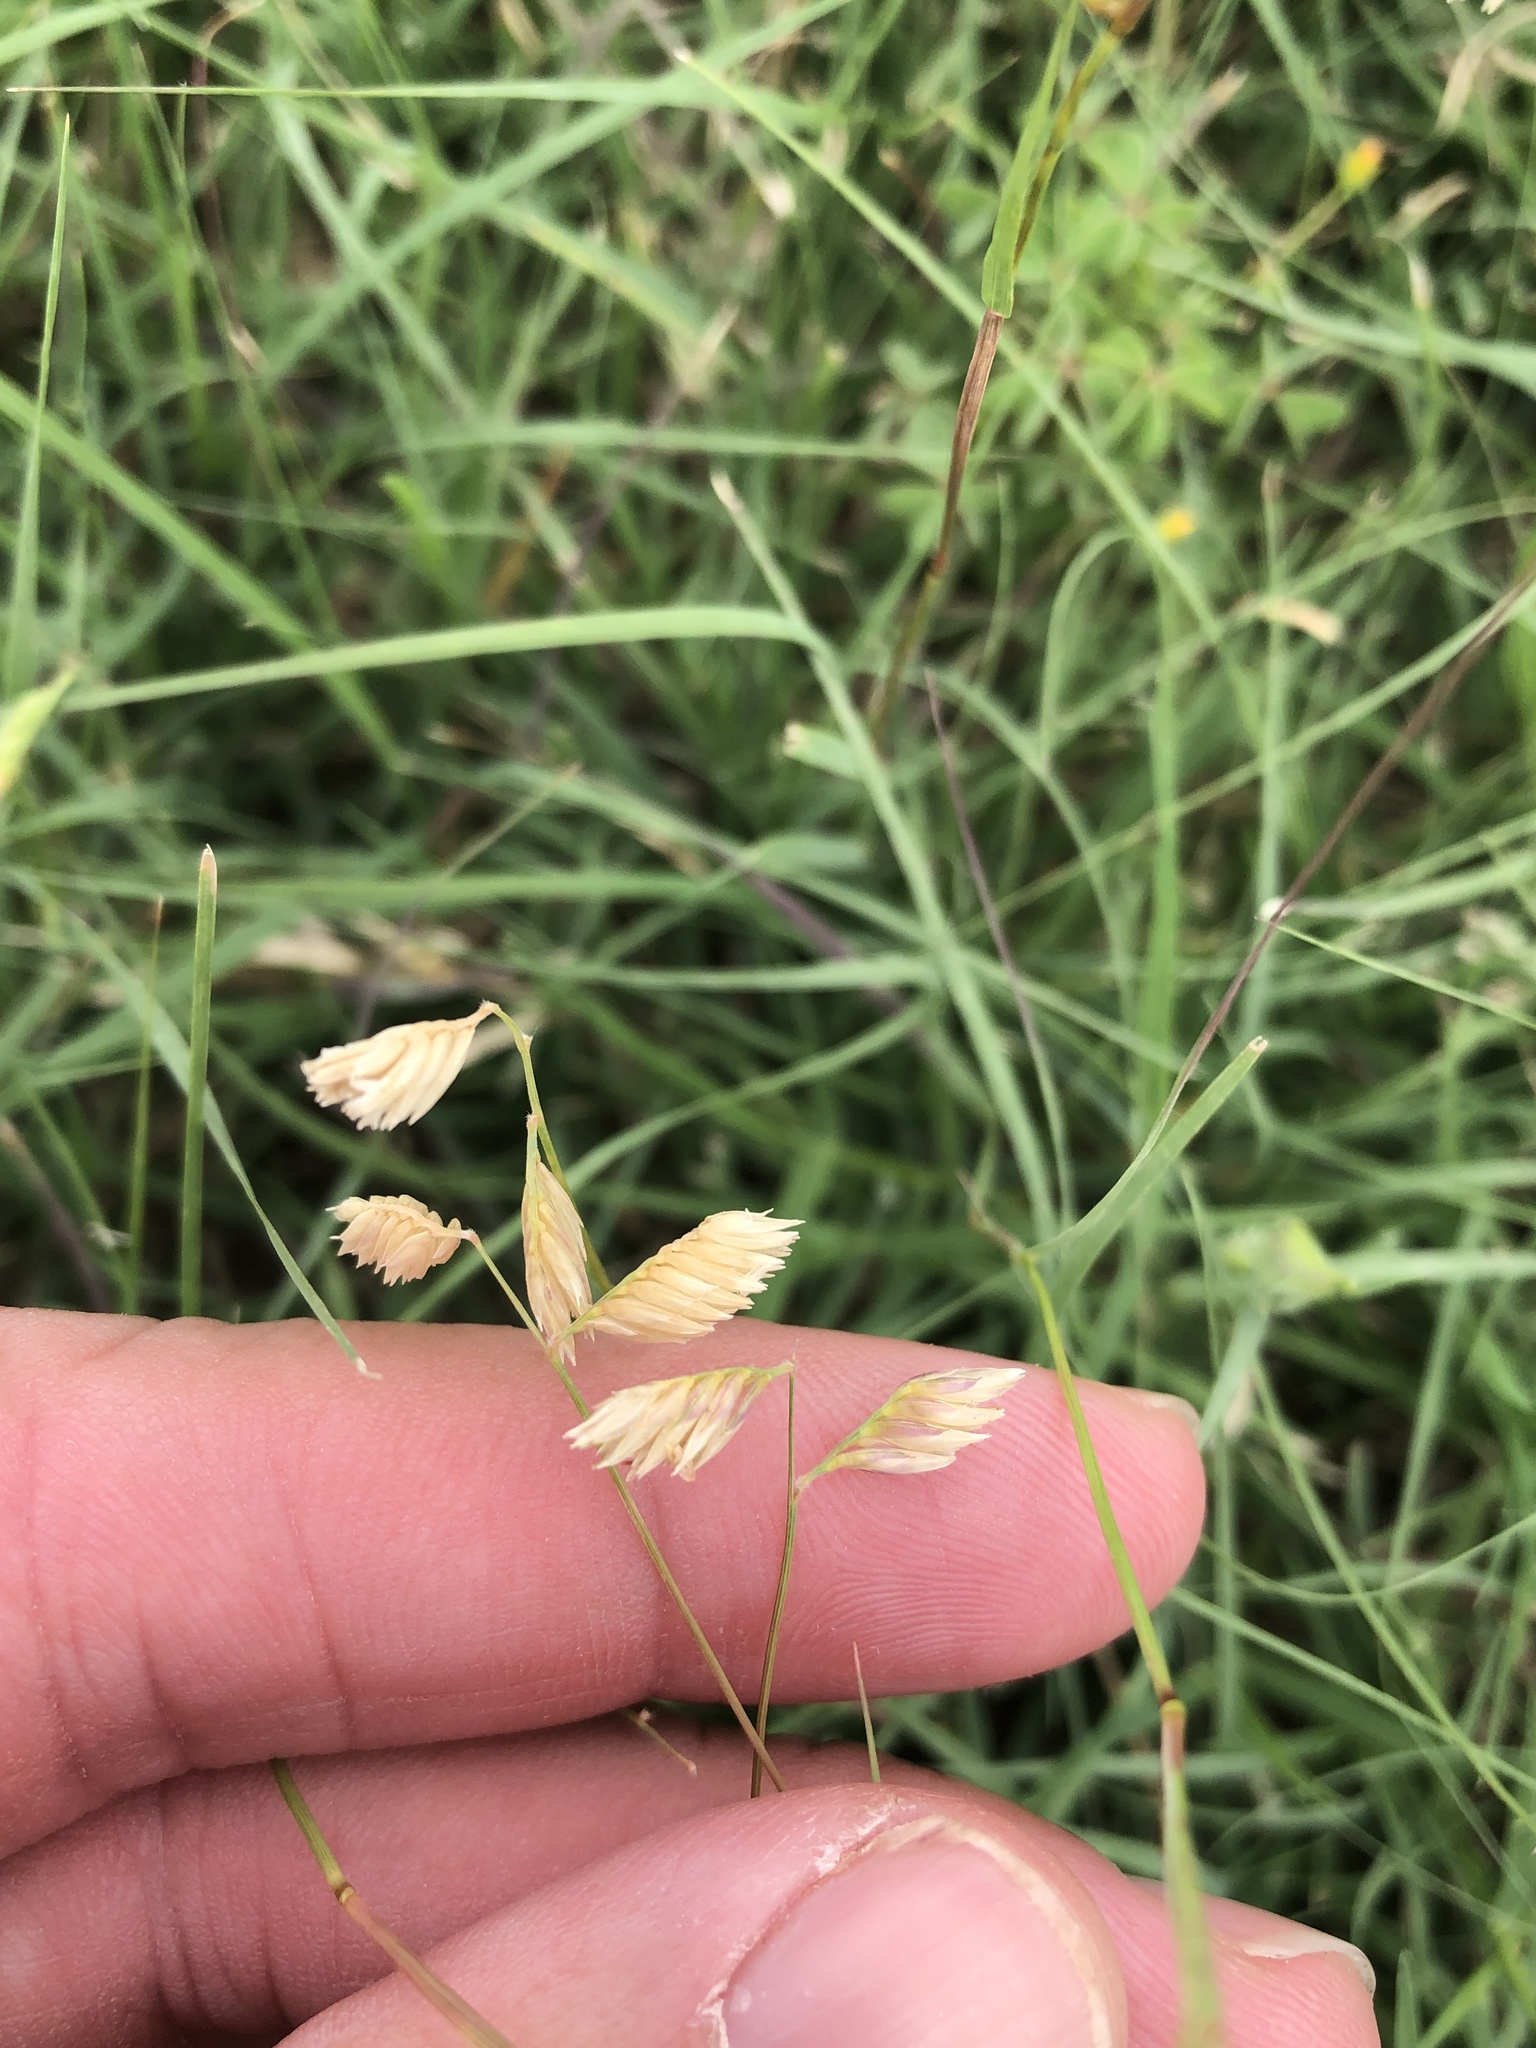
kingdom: Plantae
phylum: Tracheophyta
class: Liliopsida
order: Poales
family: Poaceae
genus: Bouteloua
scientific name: Bouteloua dactyloides
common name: Buffalo grass
